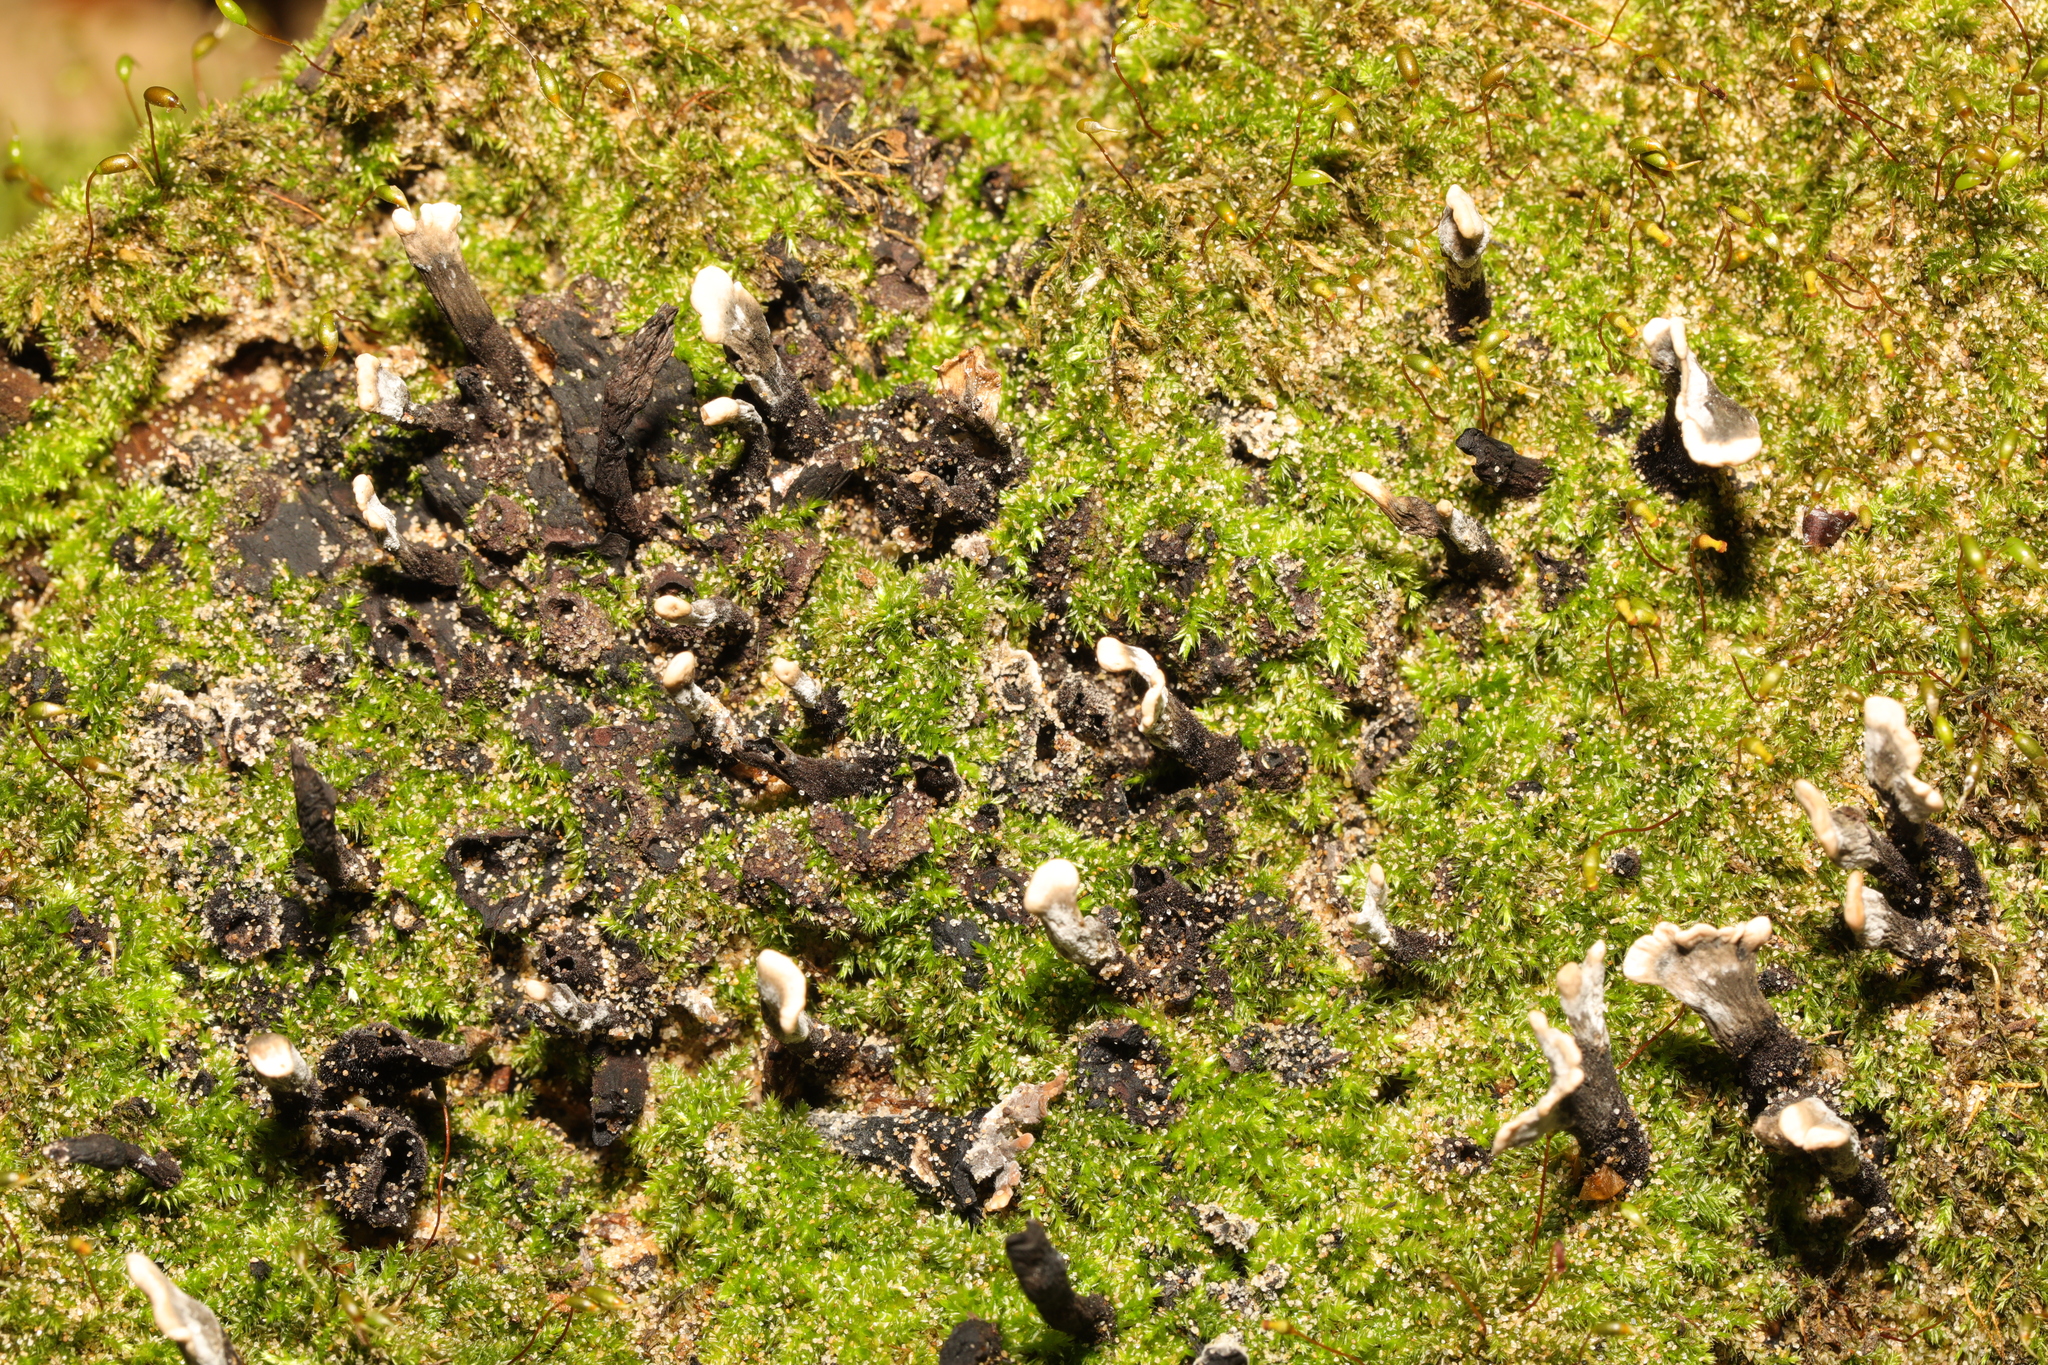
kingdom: Fungi
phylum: Ascomycota
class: Sordariomycetes
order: Xylariales
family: Xylariaceae
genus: Xylaria
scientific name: Xylaria hypoxylon
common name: Candle-snuff fungus
